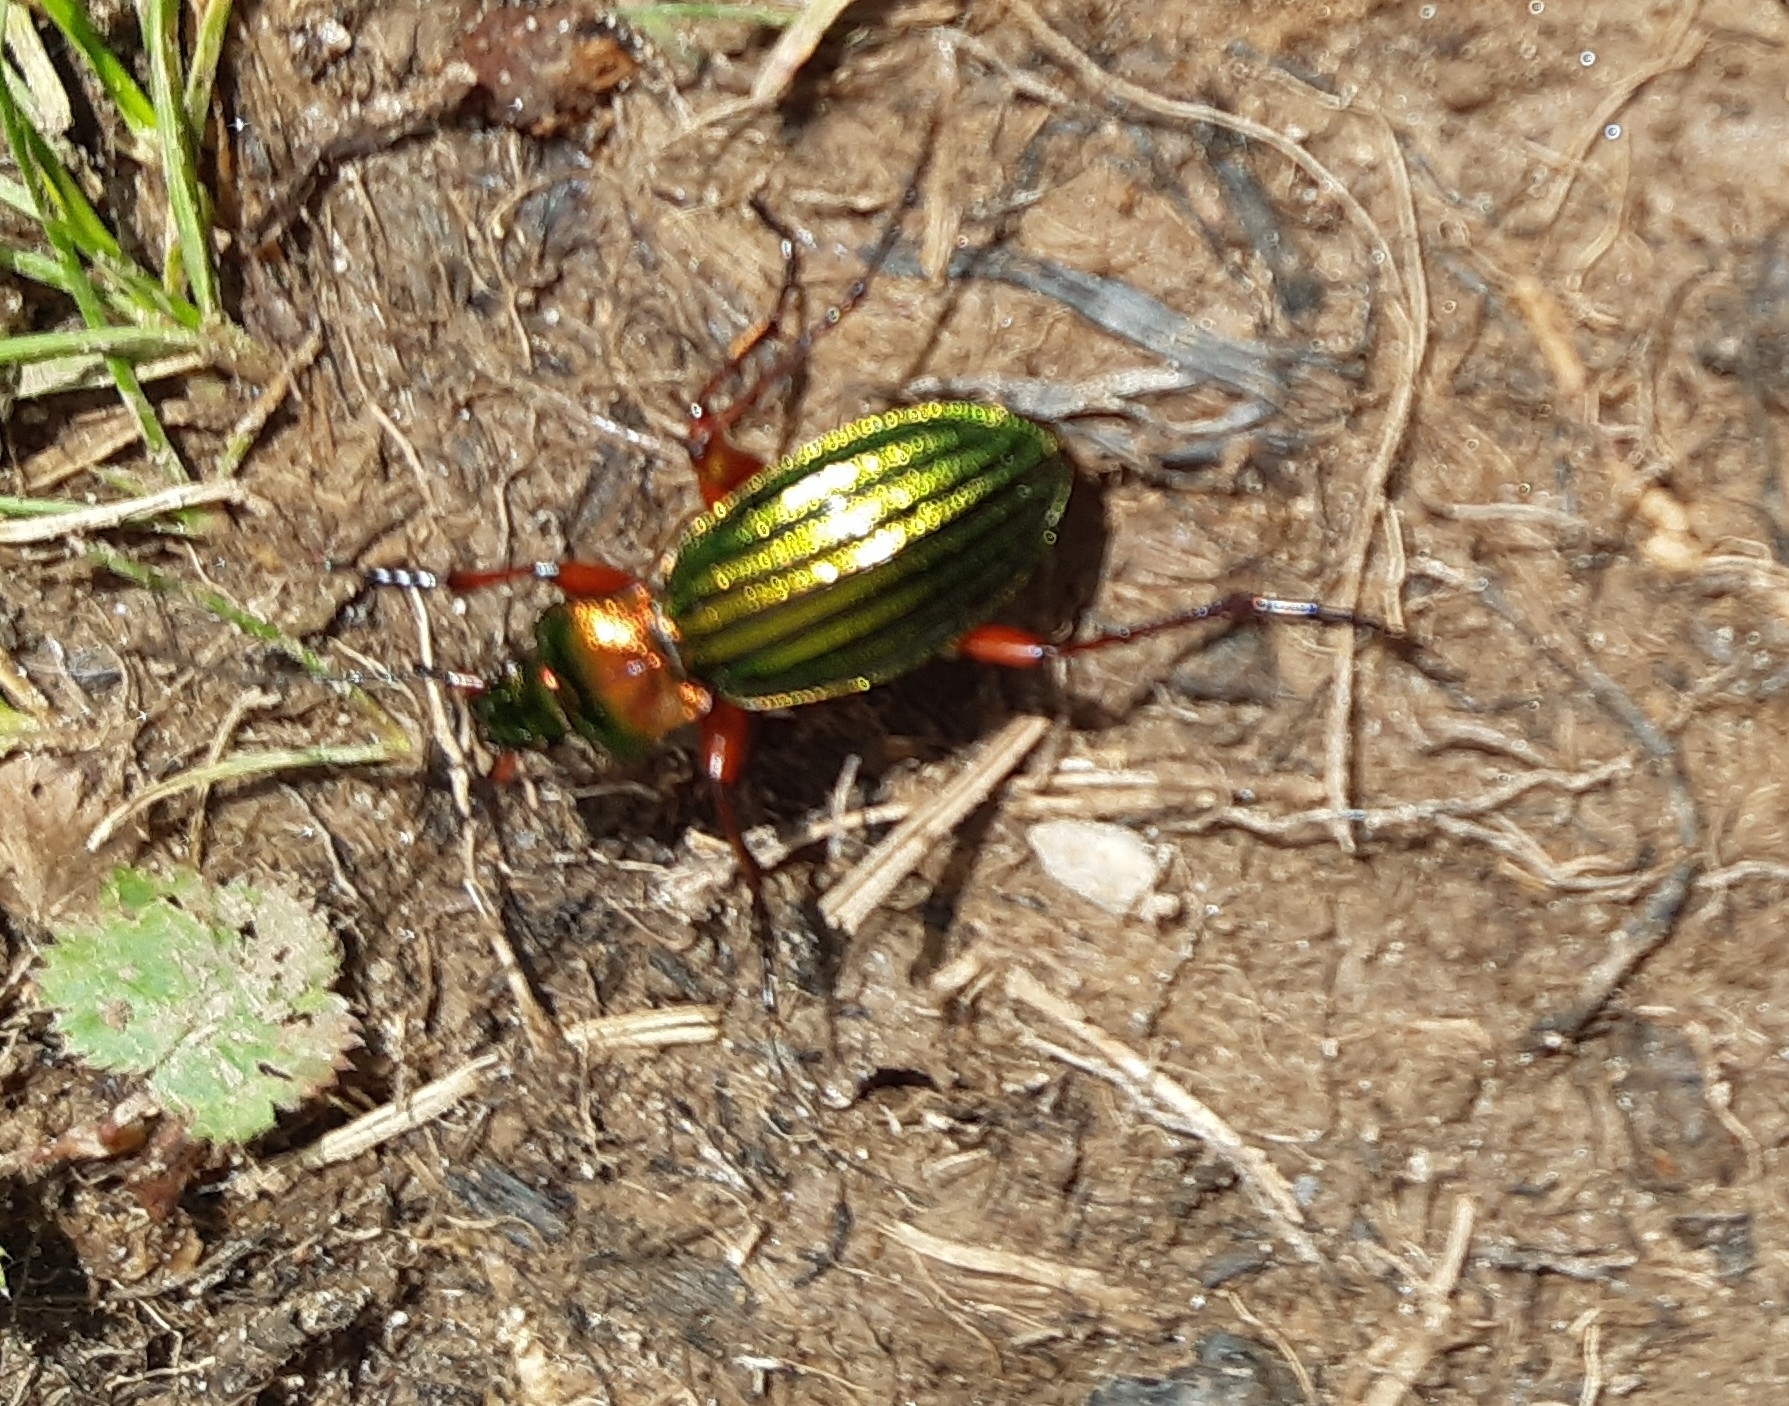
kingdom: Animalia
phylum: Arthropoda
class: Insecta
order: Coleoptera
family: Carabidae
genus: Carabus
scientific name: Carabus auronitens
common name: Carabus auronitens
